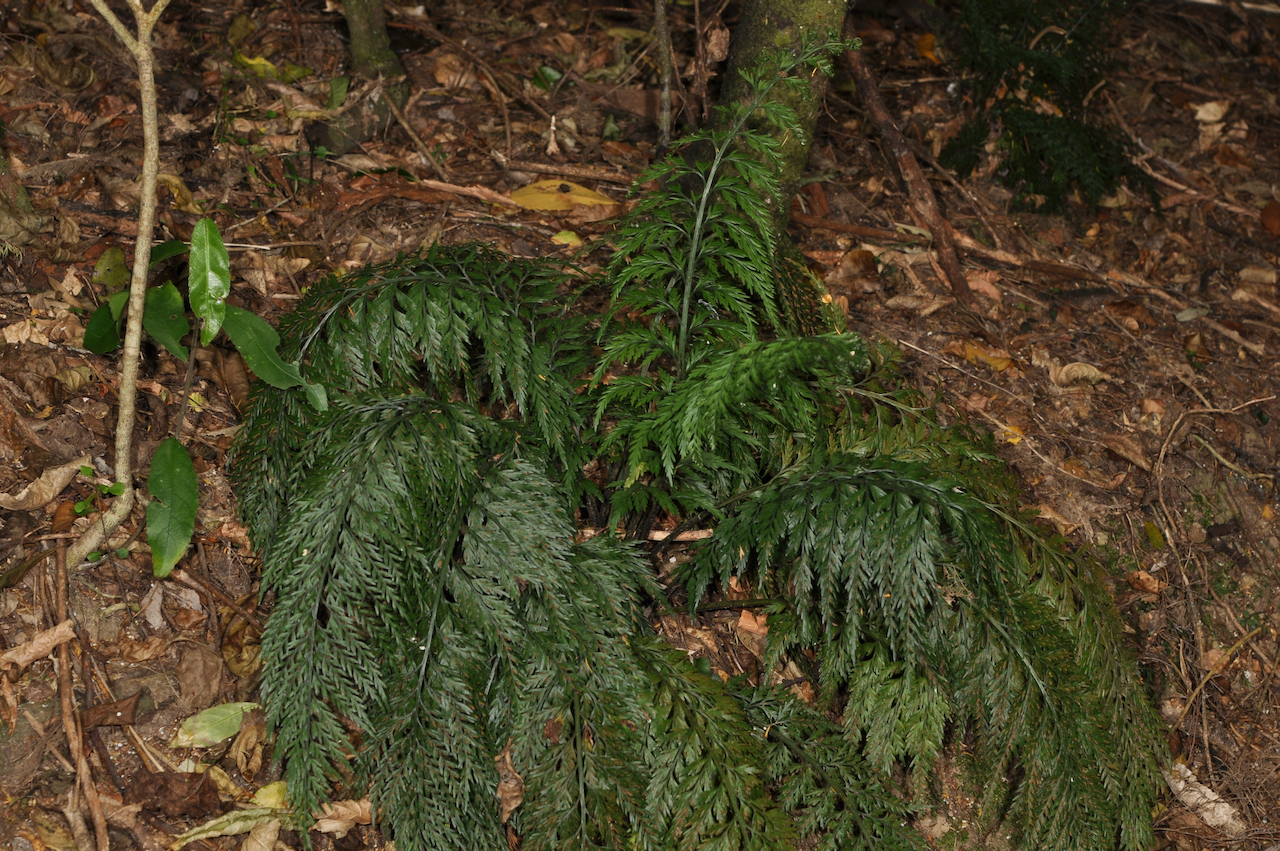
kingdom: Plantae
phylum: Tracheophyta
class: Polypodiopsida
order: Polypodiales
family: Aspleniaceae
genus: Asplenium
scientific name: Asplenium appendiculatum
